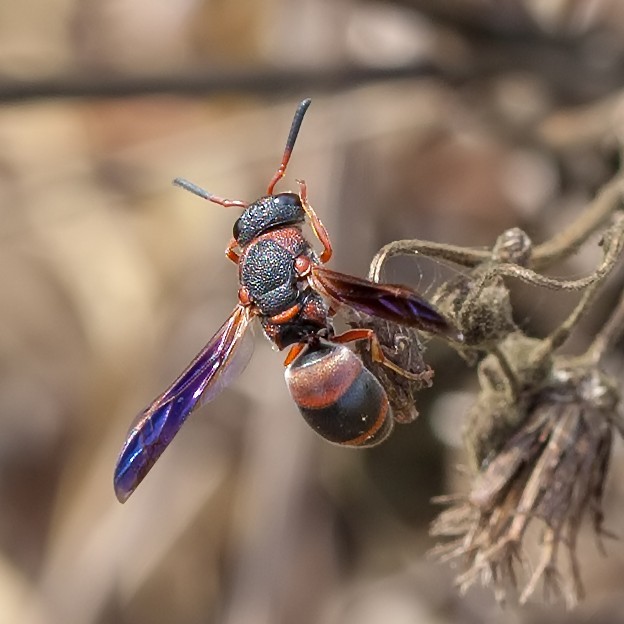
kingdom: Animalia
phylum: Arthropoda
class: Insecta
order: Hymenoptera
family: Eumenidae
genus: Pachodynerus
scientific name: Pachodynerus erynnis
